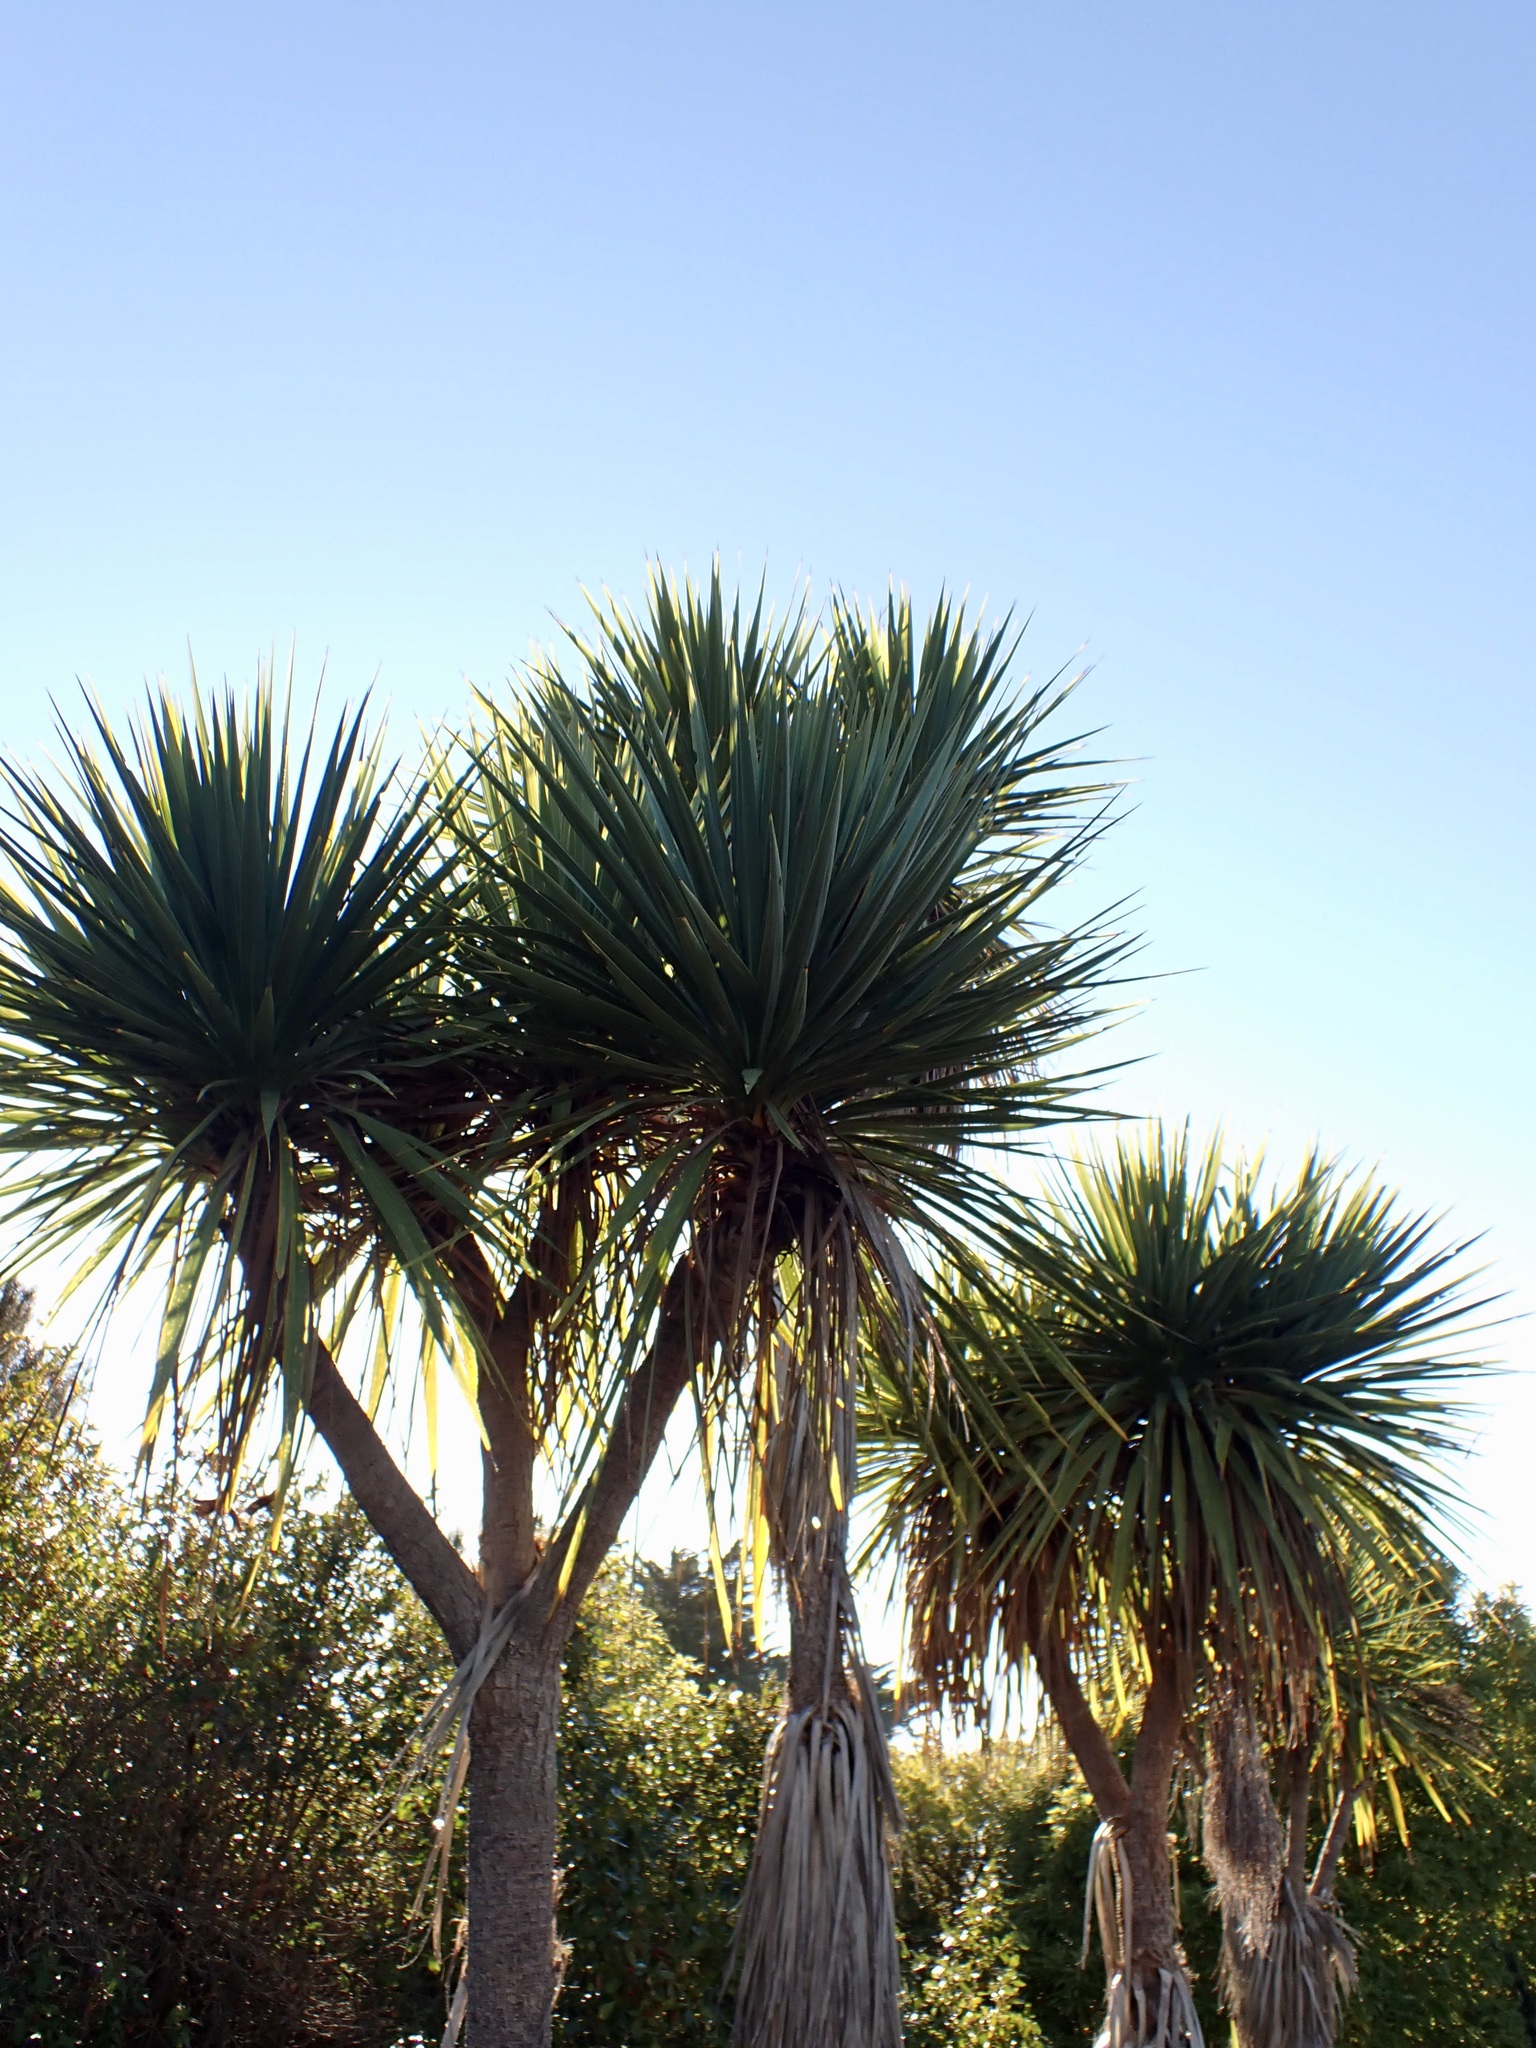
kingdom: Plantae
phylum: Tracheophyta
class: Liliopsida
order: Asparagales
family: Asparagaceae
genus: Cordyline
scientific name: Cordyline australis
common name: Cabbage-palm
